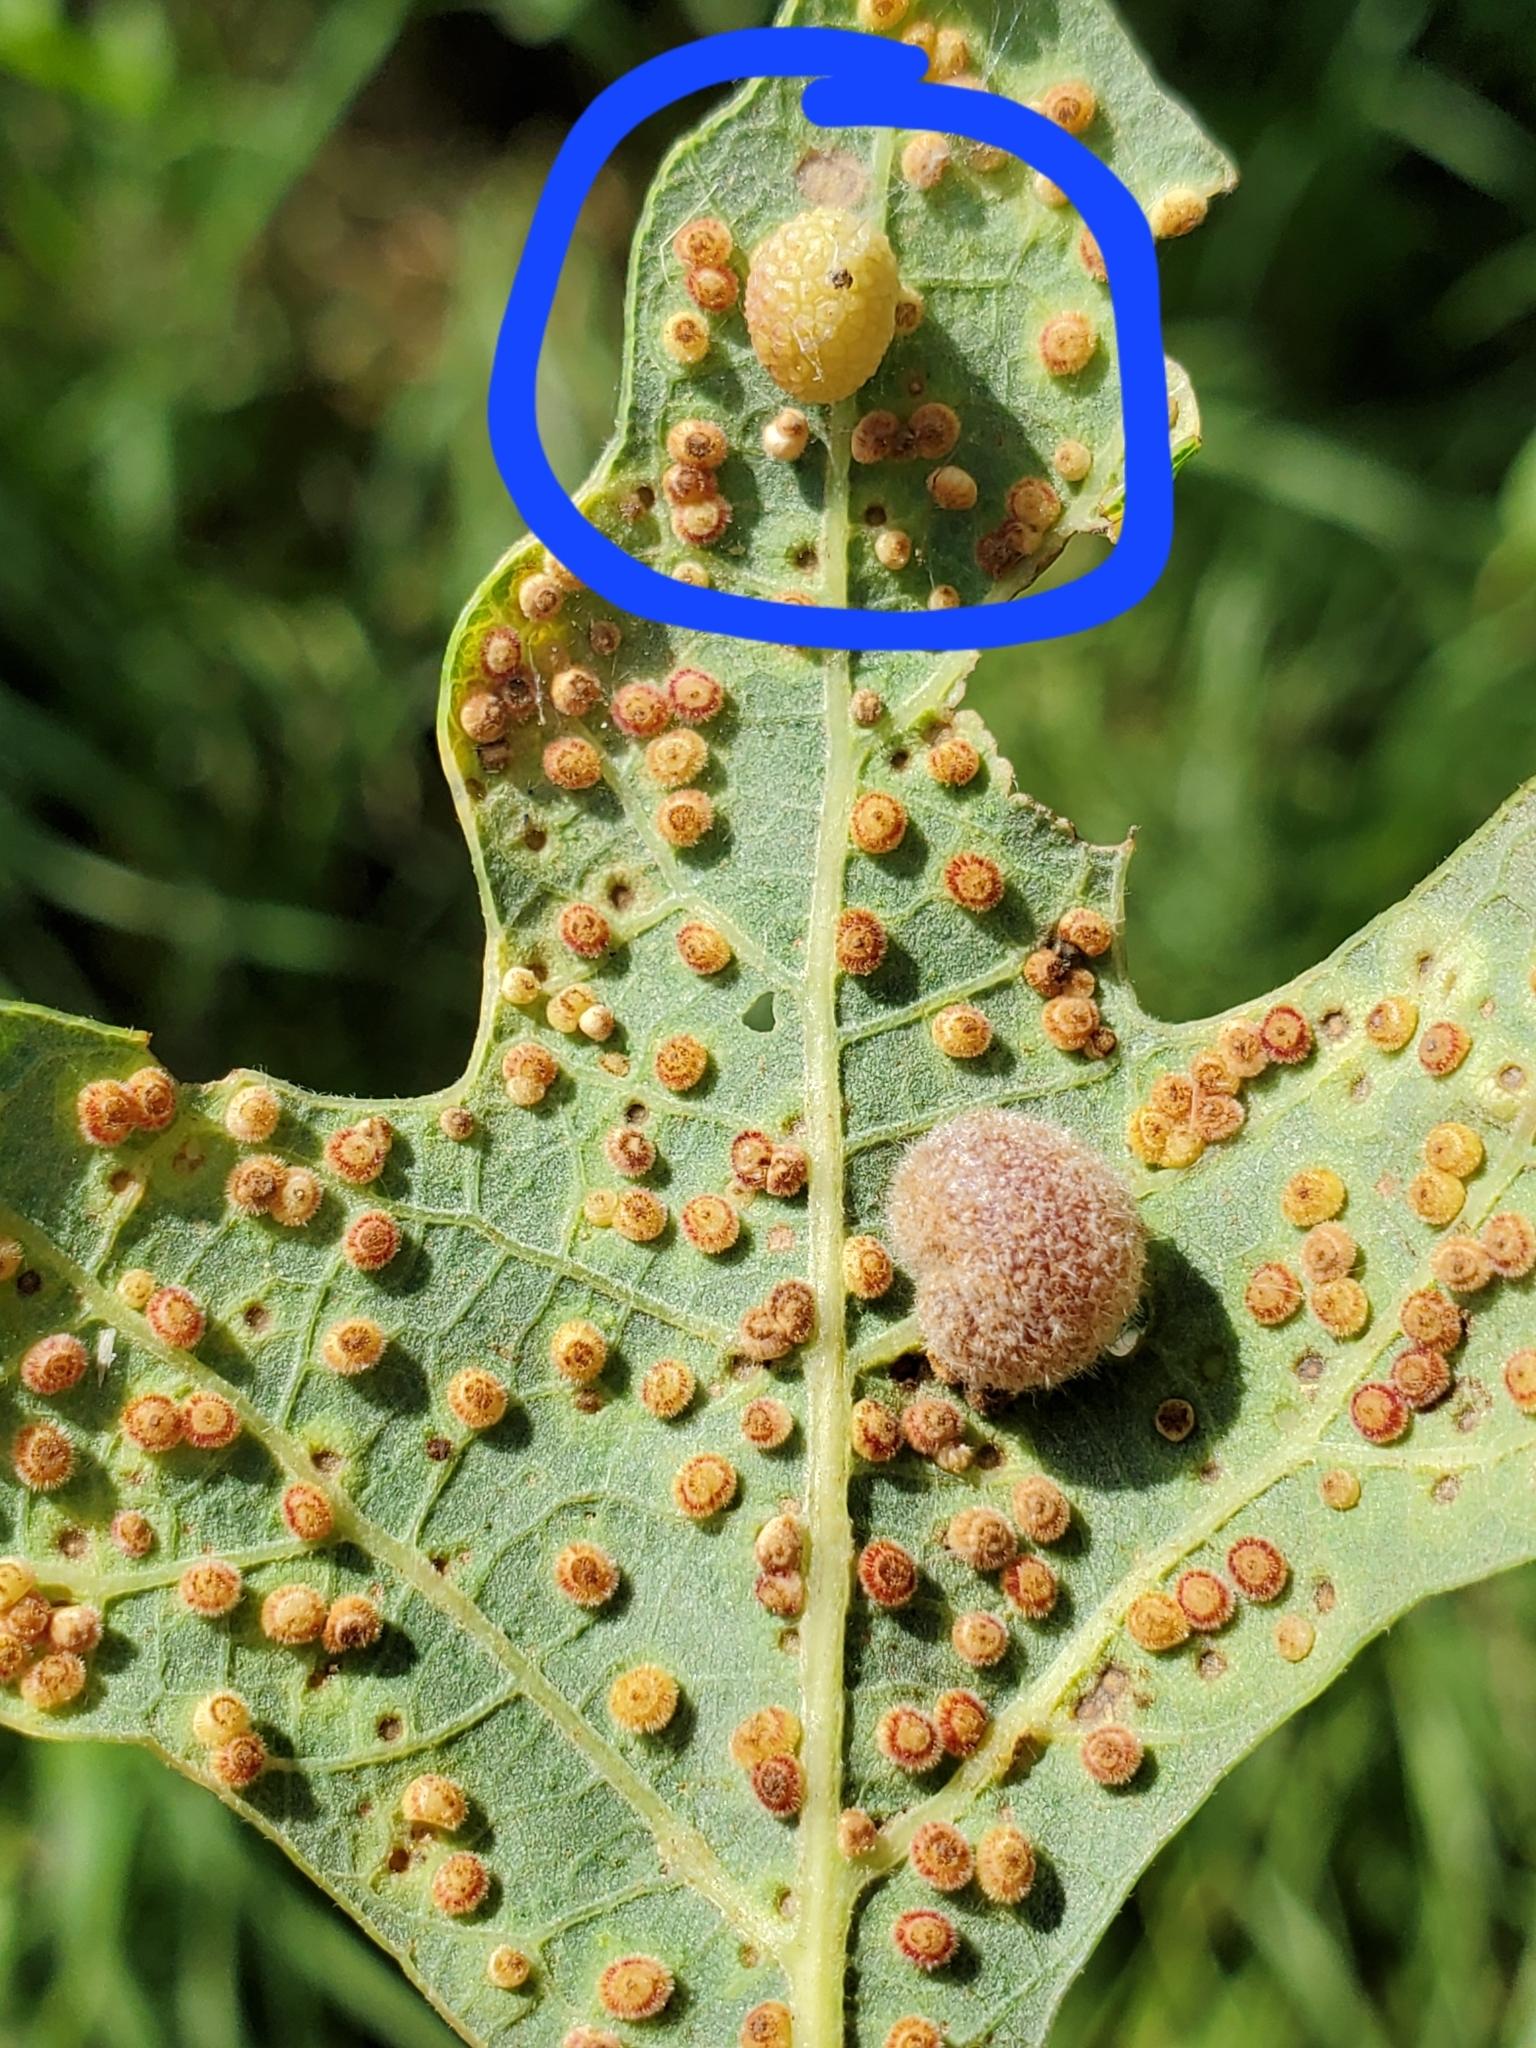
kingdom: Animalia
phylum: Arthropoda
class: Insecta
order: Hymenoptera
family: Cynipidae
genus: Acraspis
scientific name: Acraspis quercushirta
